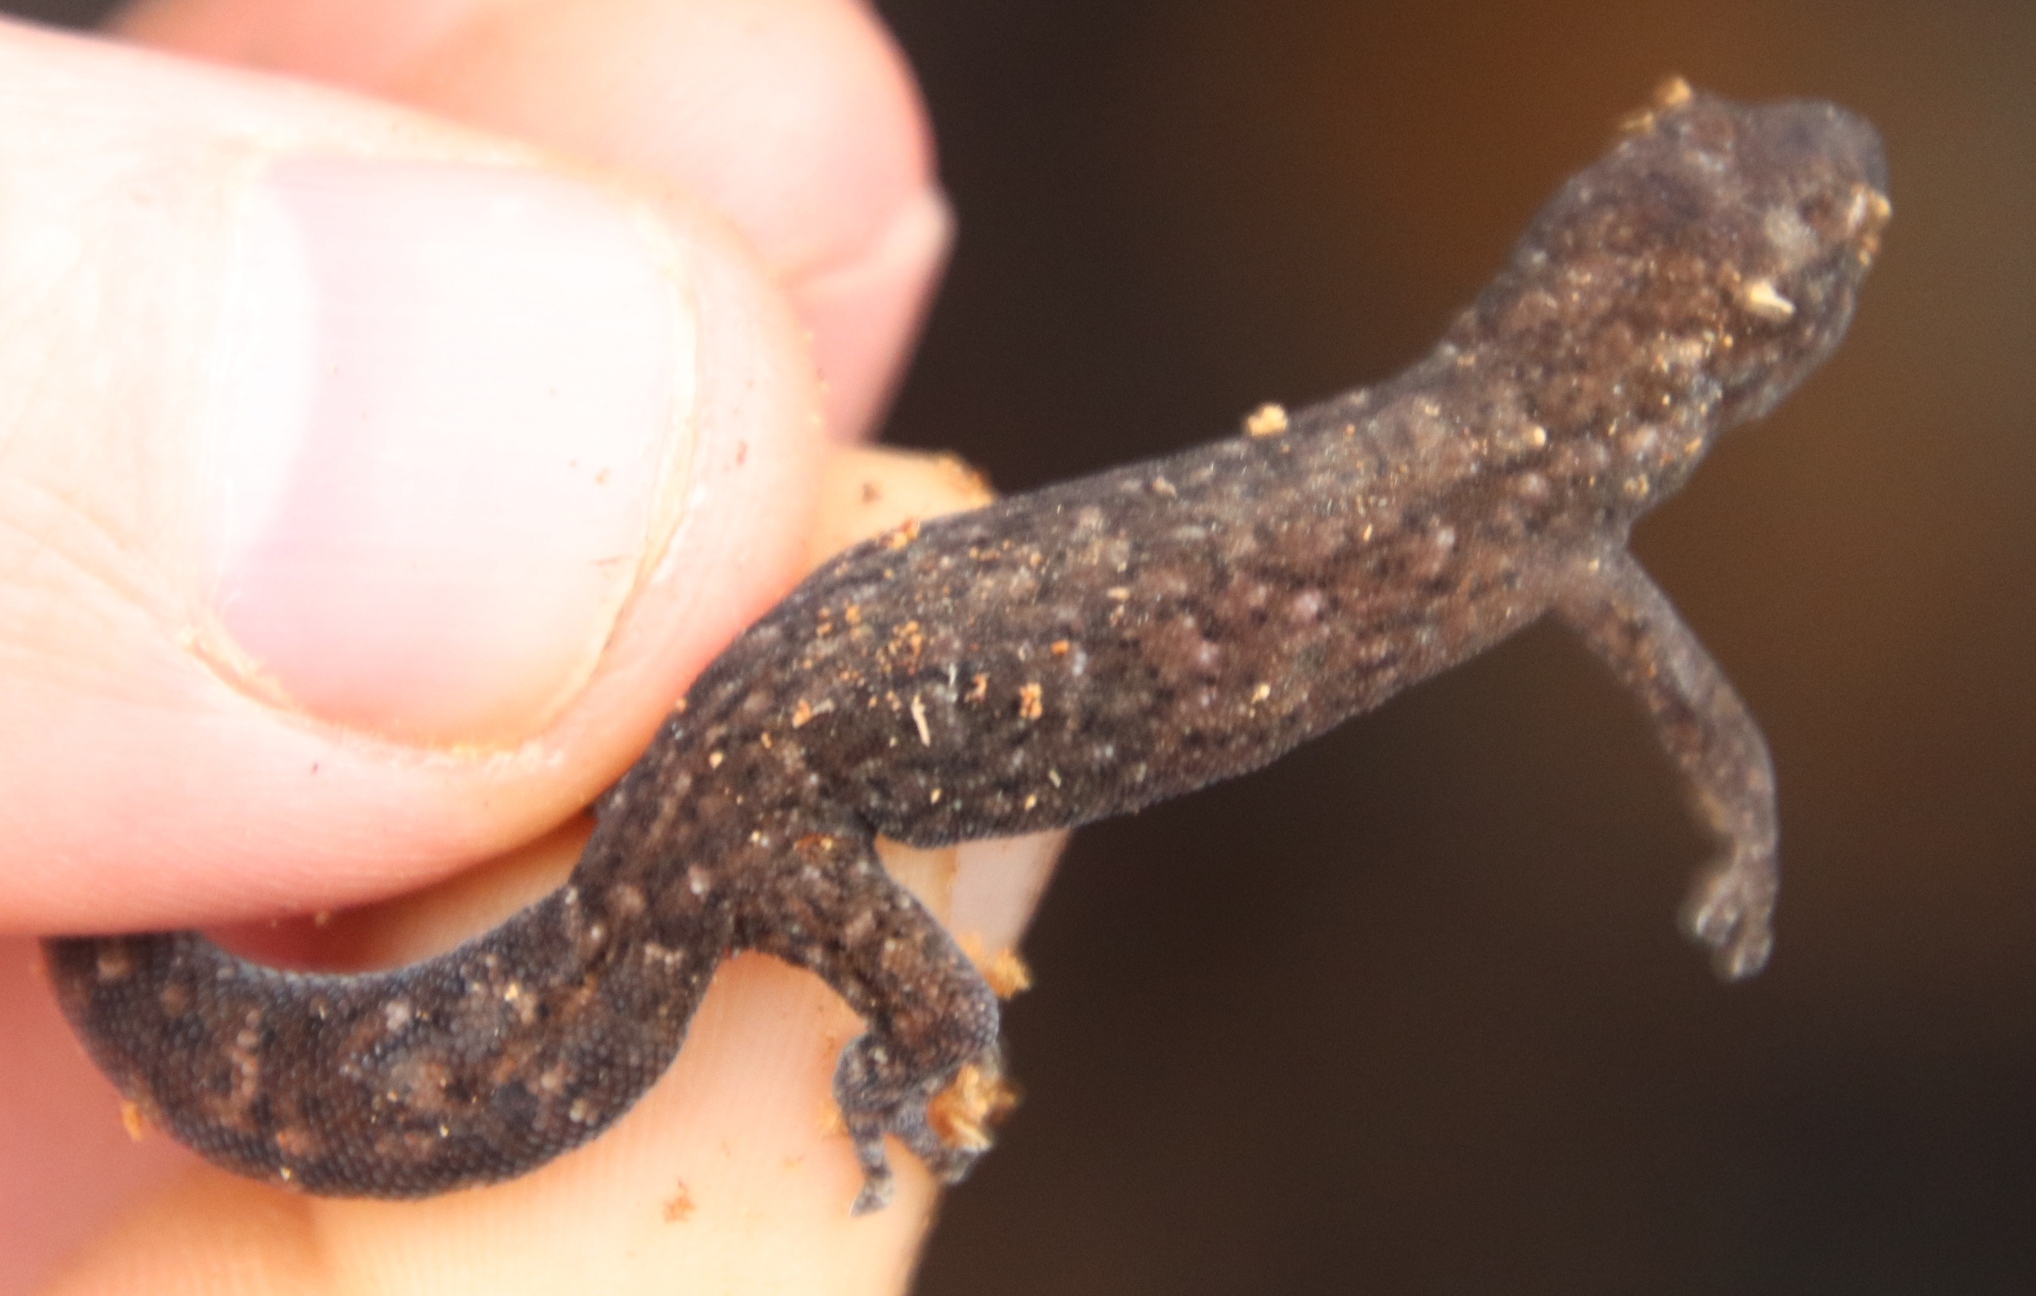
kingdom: Animalia
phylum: Chordata
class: Squamata
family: Gekkonidae
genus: Afrogecko
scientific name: Afrogecko porphyreus
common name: Marbled leaf-toed gecko
